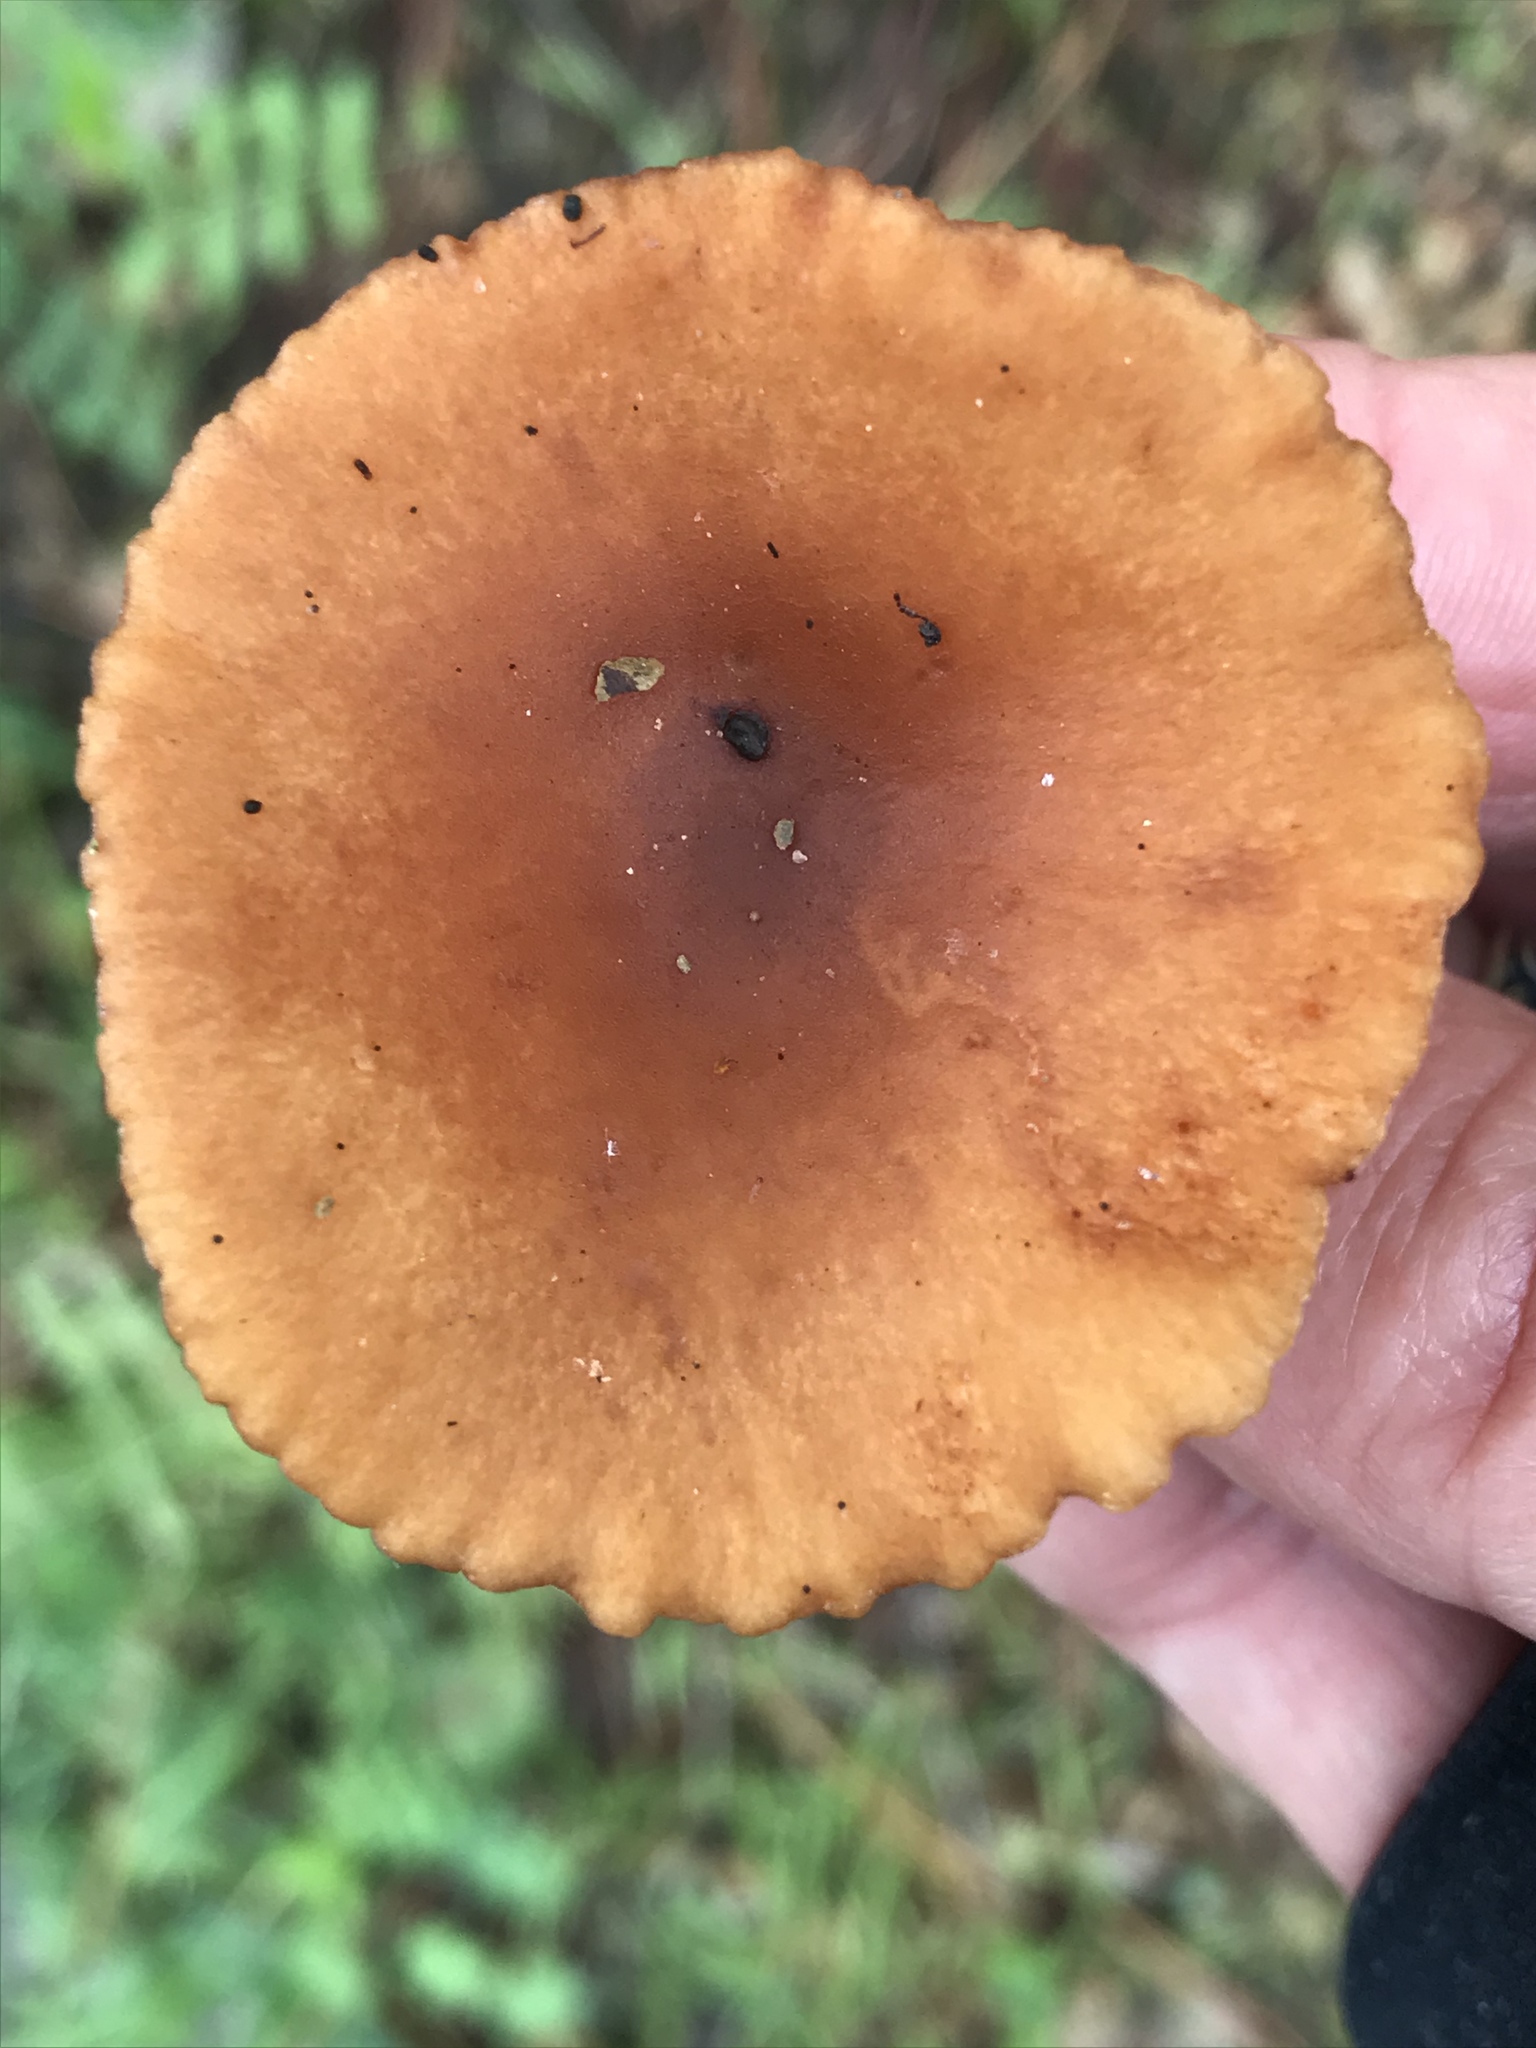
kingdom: Fungi
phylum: Basidiomycota
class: Agaricomycetes
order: Russulales
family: Russulaceae
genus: Lactarius
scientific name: Lactarius rubidus
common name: Candy cap
